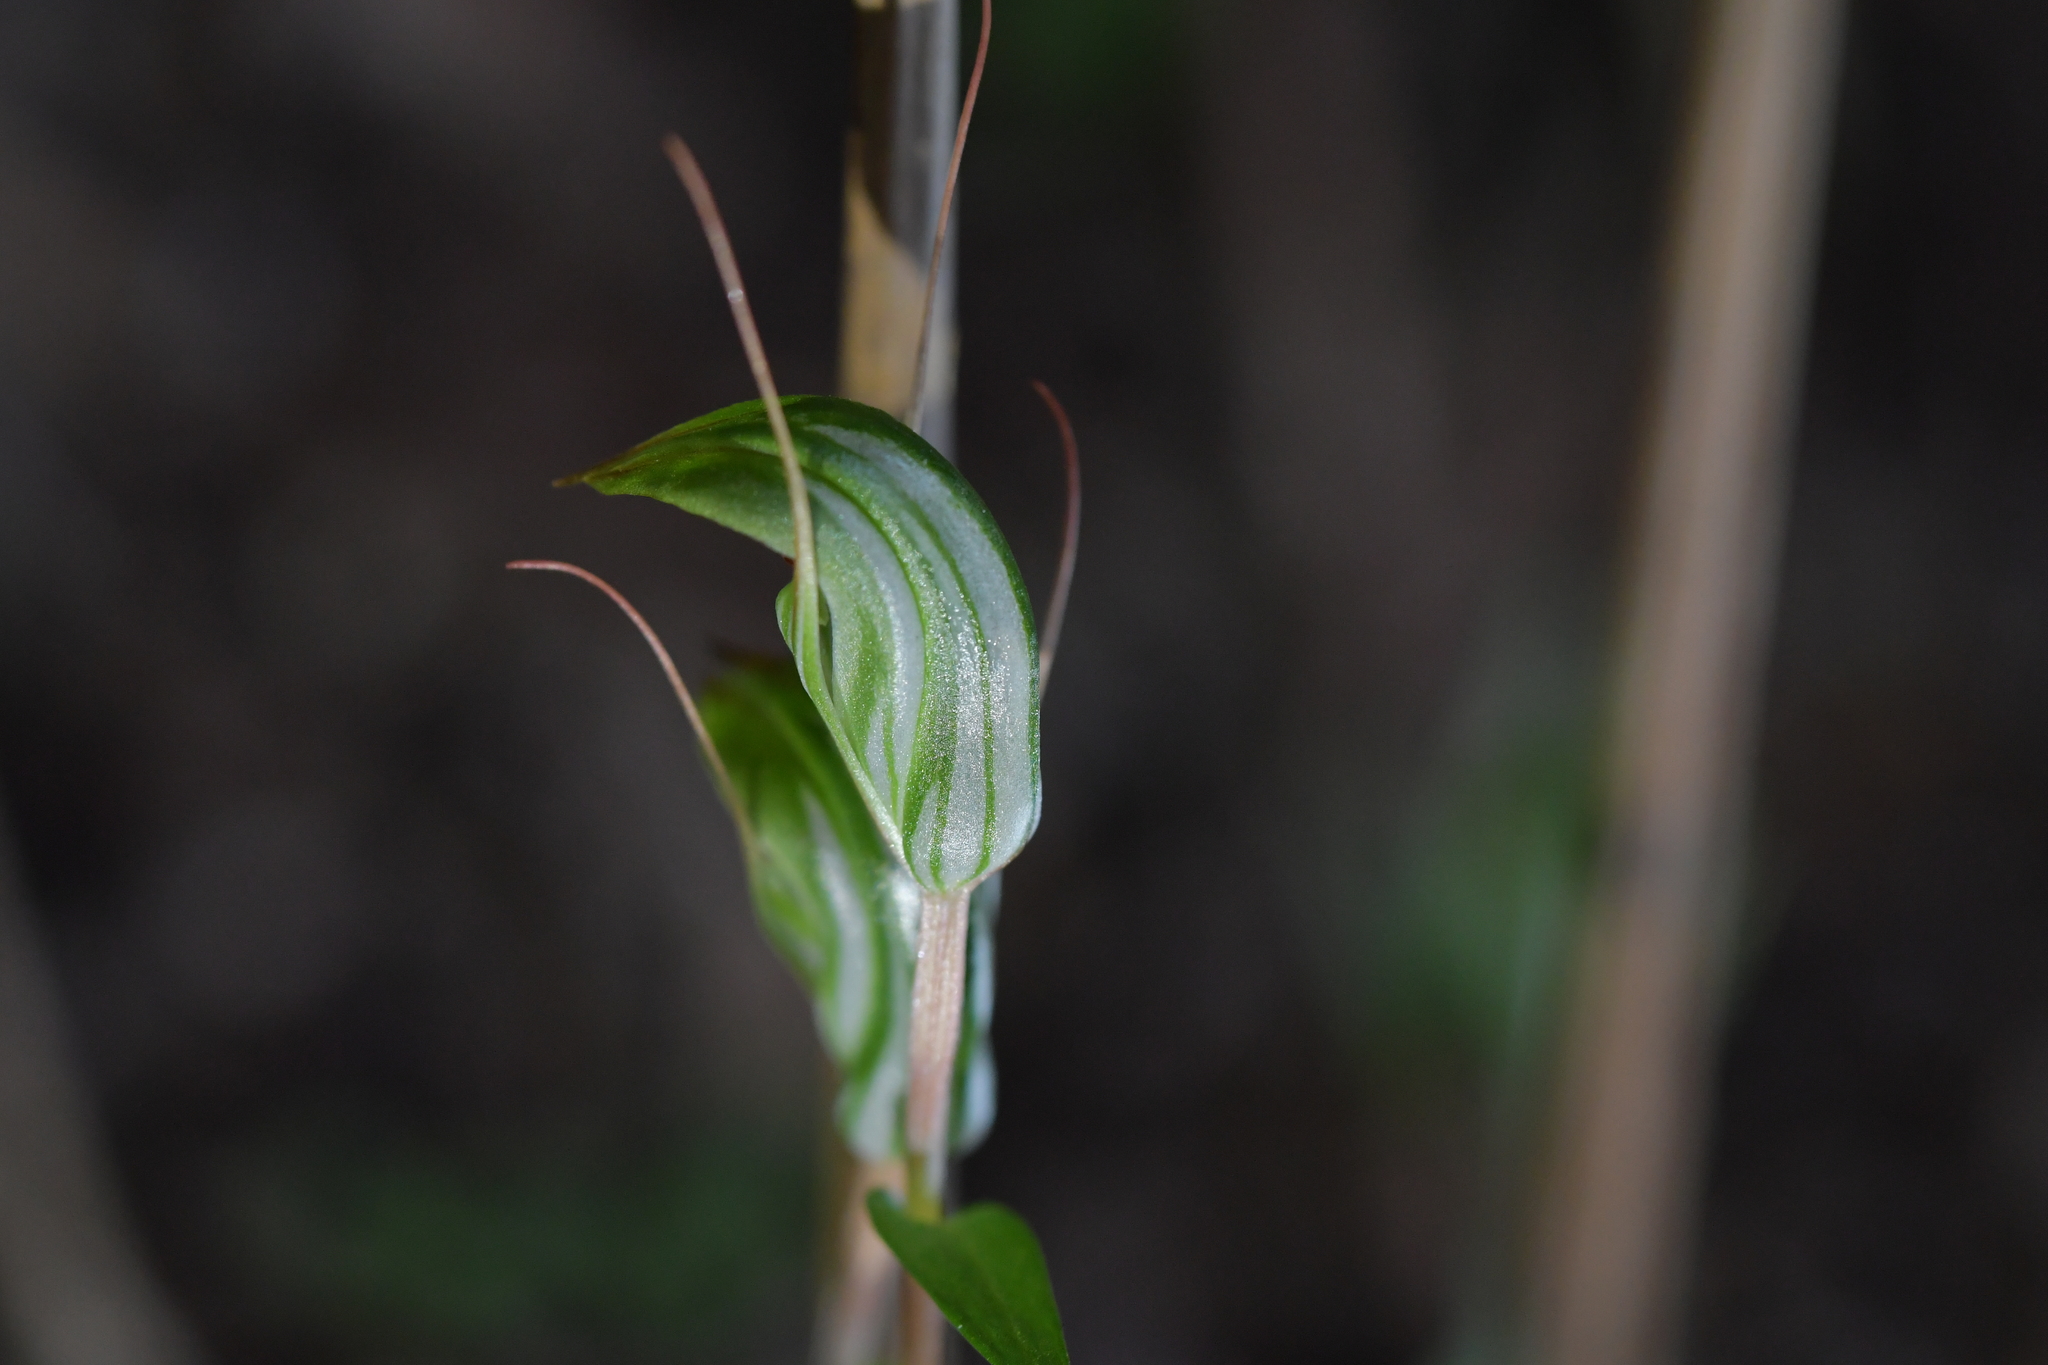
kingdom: Plantae
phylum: Tracheophyta
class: Liliopsida
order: Asparagales
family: Orchidaceae
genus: Pterostylis
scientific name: Pterostylis alobula
